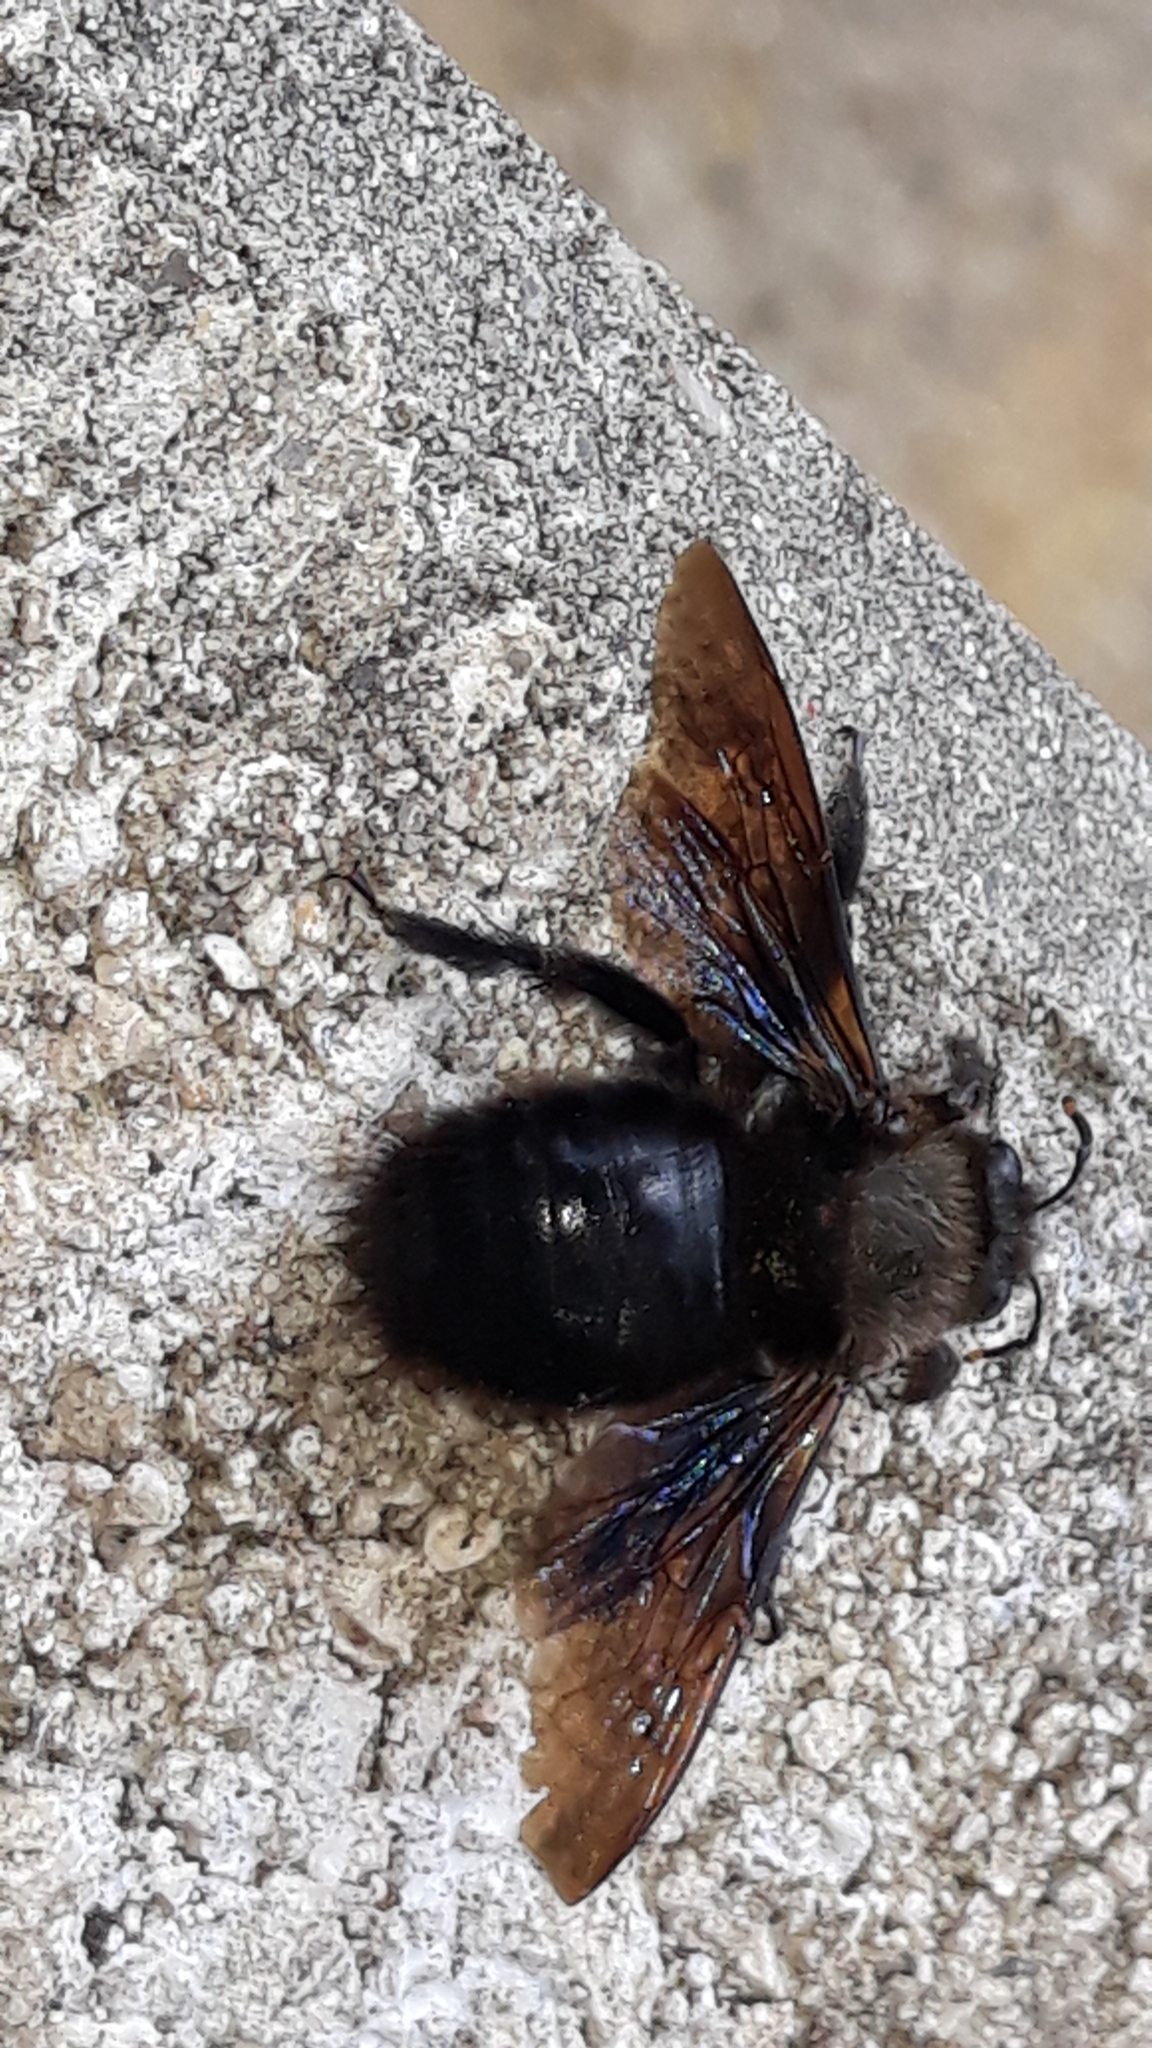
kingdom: Animalia
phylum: Arthropoda
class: Insecta
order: Hymenoptera
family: Apidae
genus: Xylocopa
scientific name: Xylocopa violacea
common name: Violet carpenter bee
